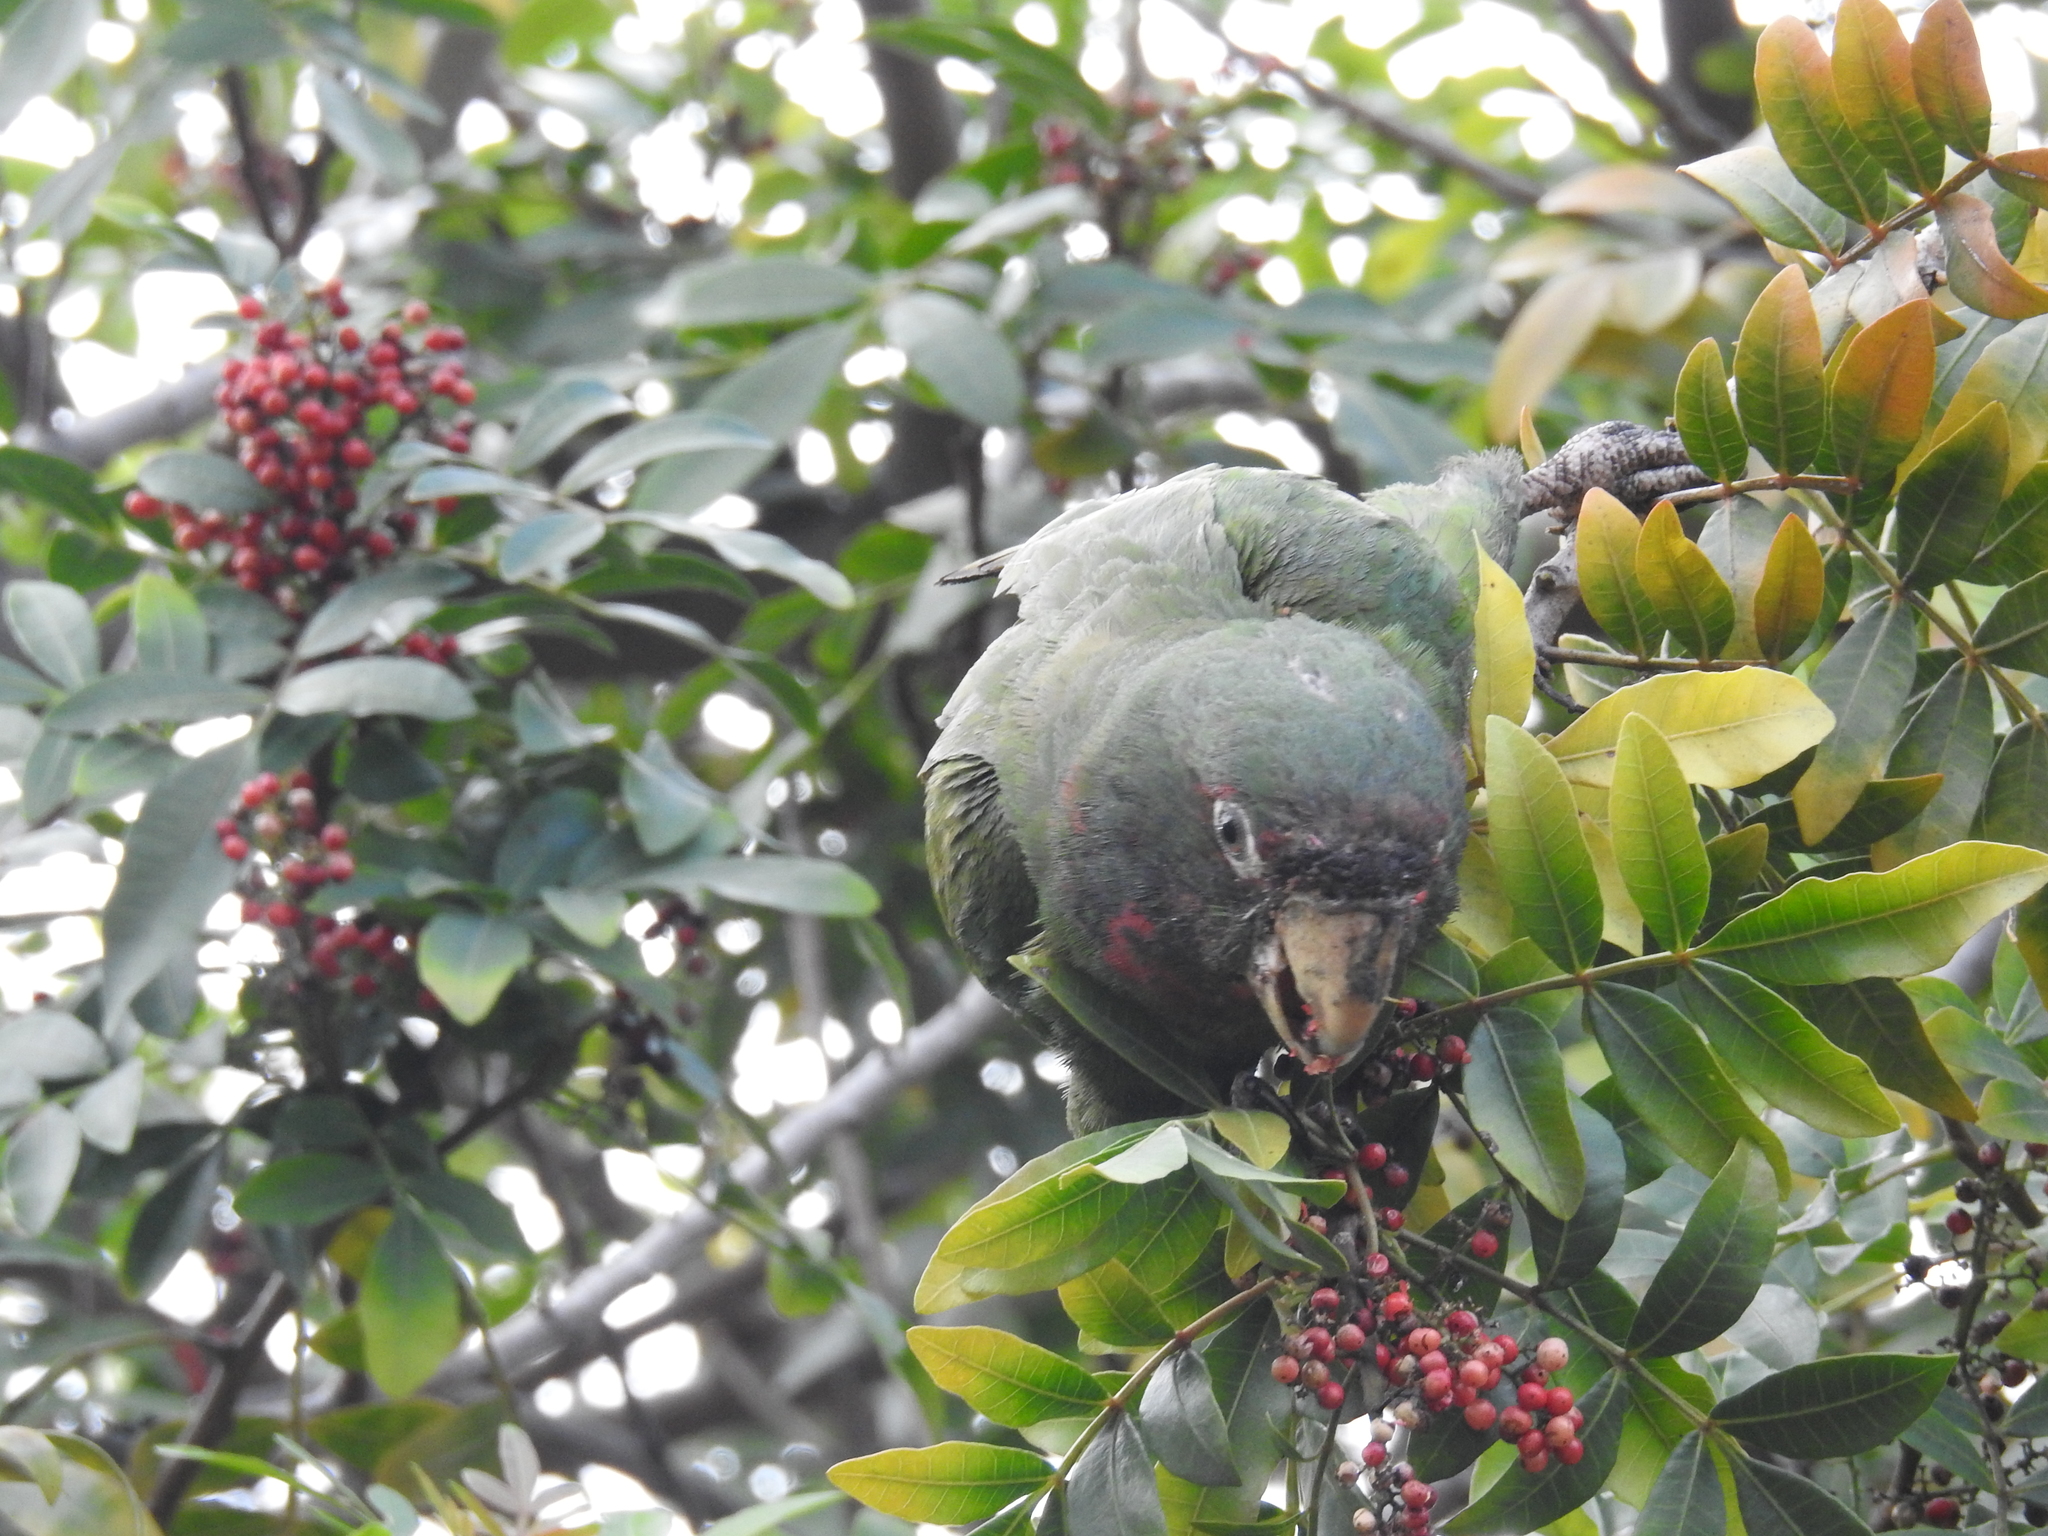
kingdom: Animalia
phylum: Chordata
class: Aves
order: Psittaciformes
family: Psittacidae
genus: Aratinga
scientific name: Aratinga mitrata
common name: Mitred parakeet
